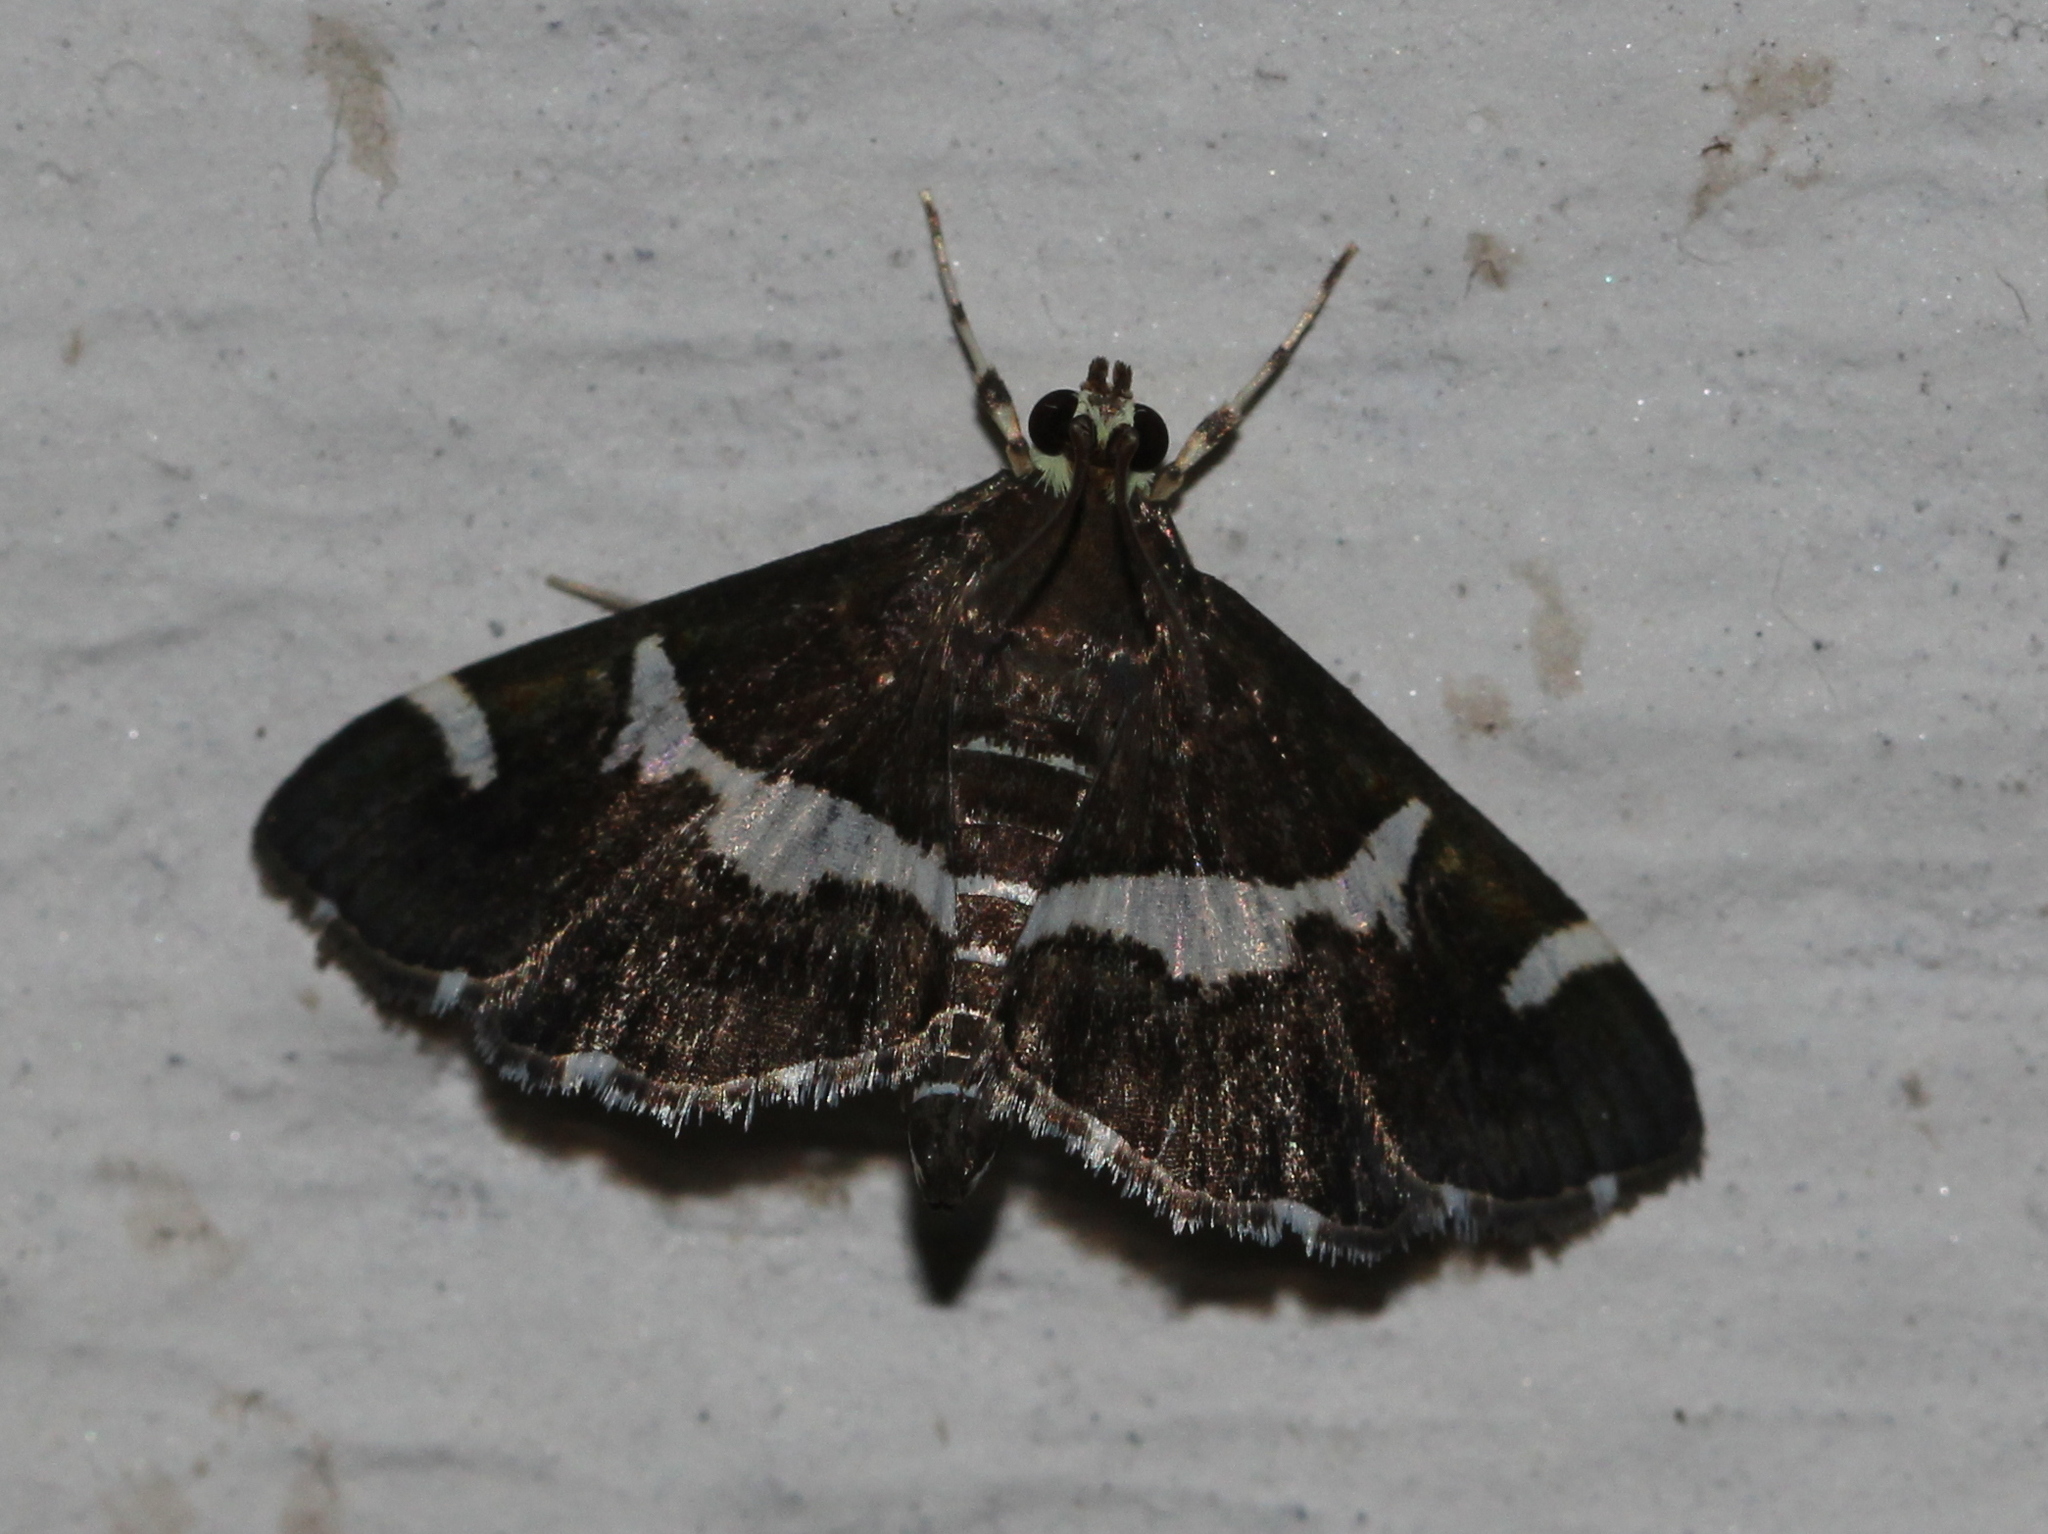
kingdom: Animalia
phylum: Arthropoda
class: Insecta
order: Lepidoptera
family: Crambidae
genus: Spoladea
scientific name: Spoladea recurvalis
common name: Beet webworm moth
